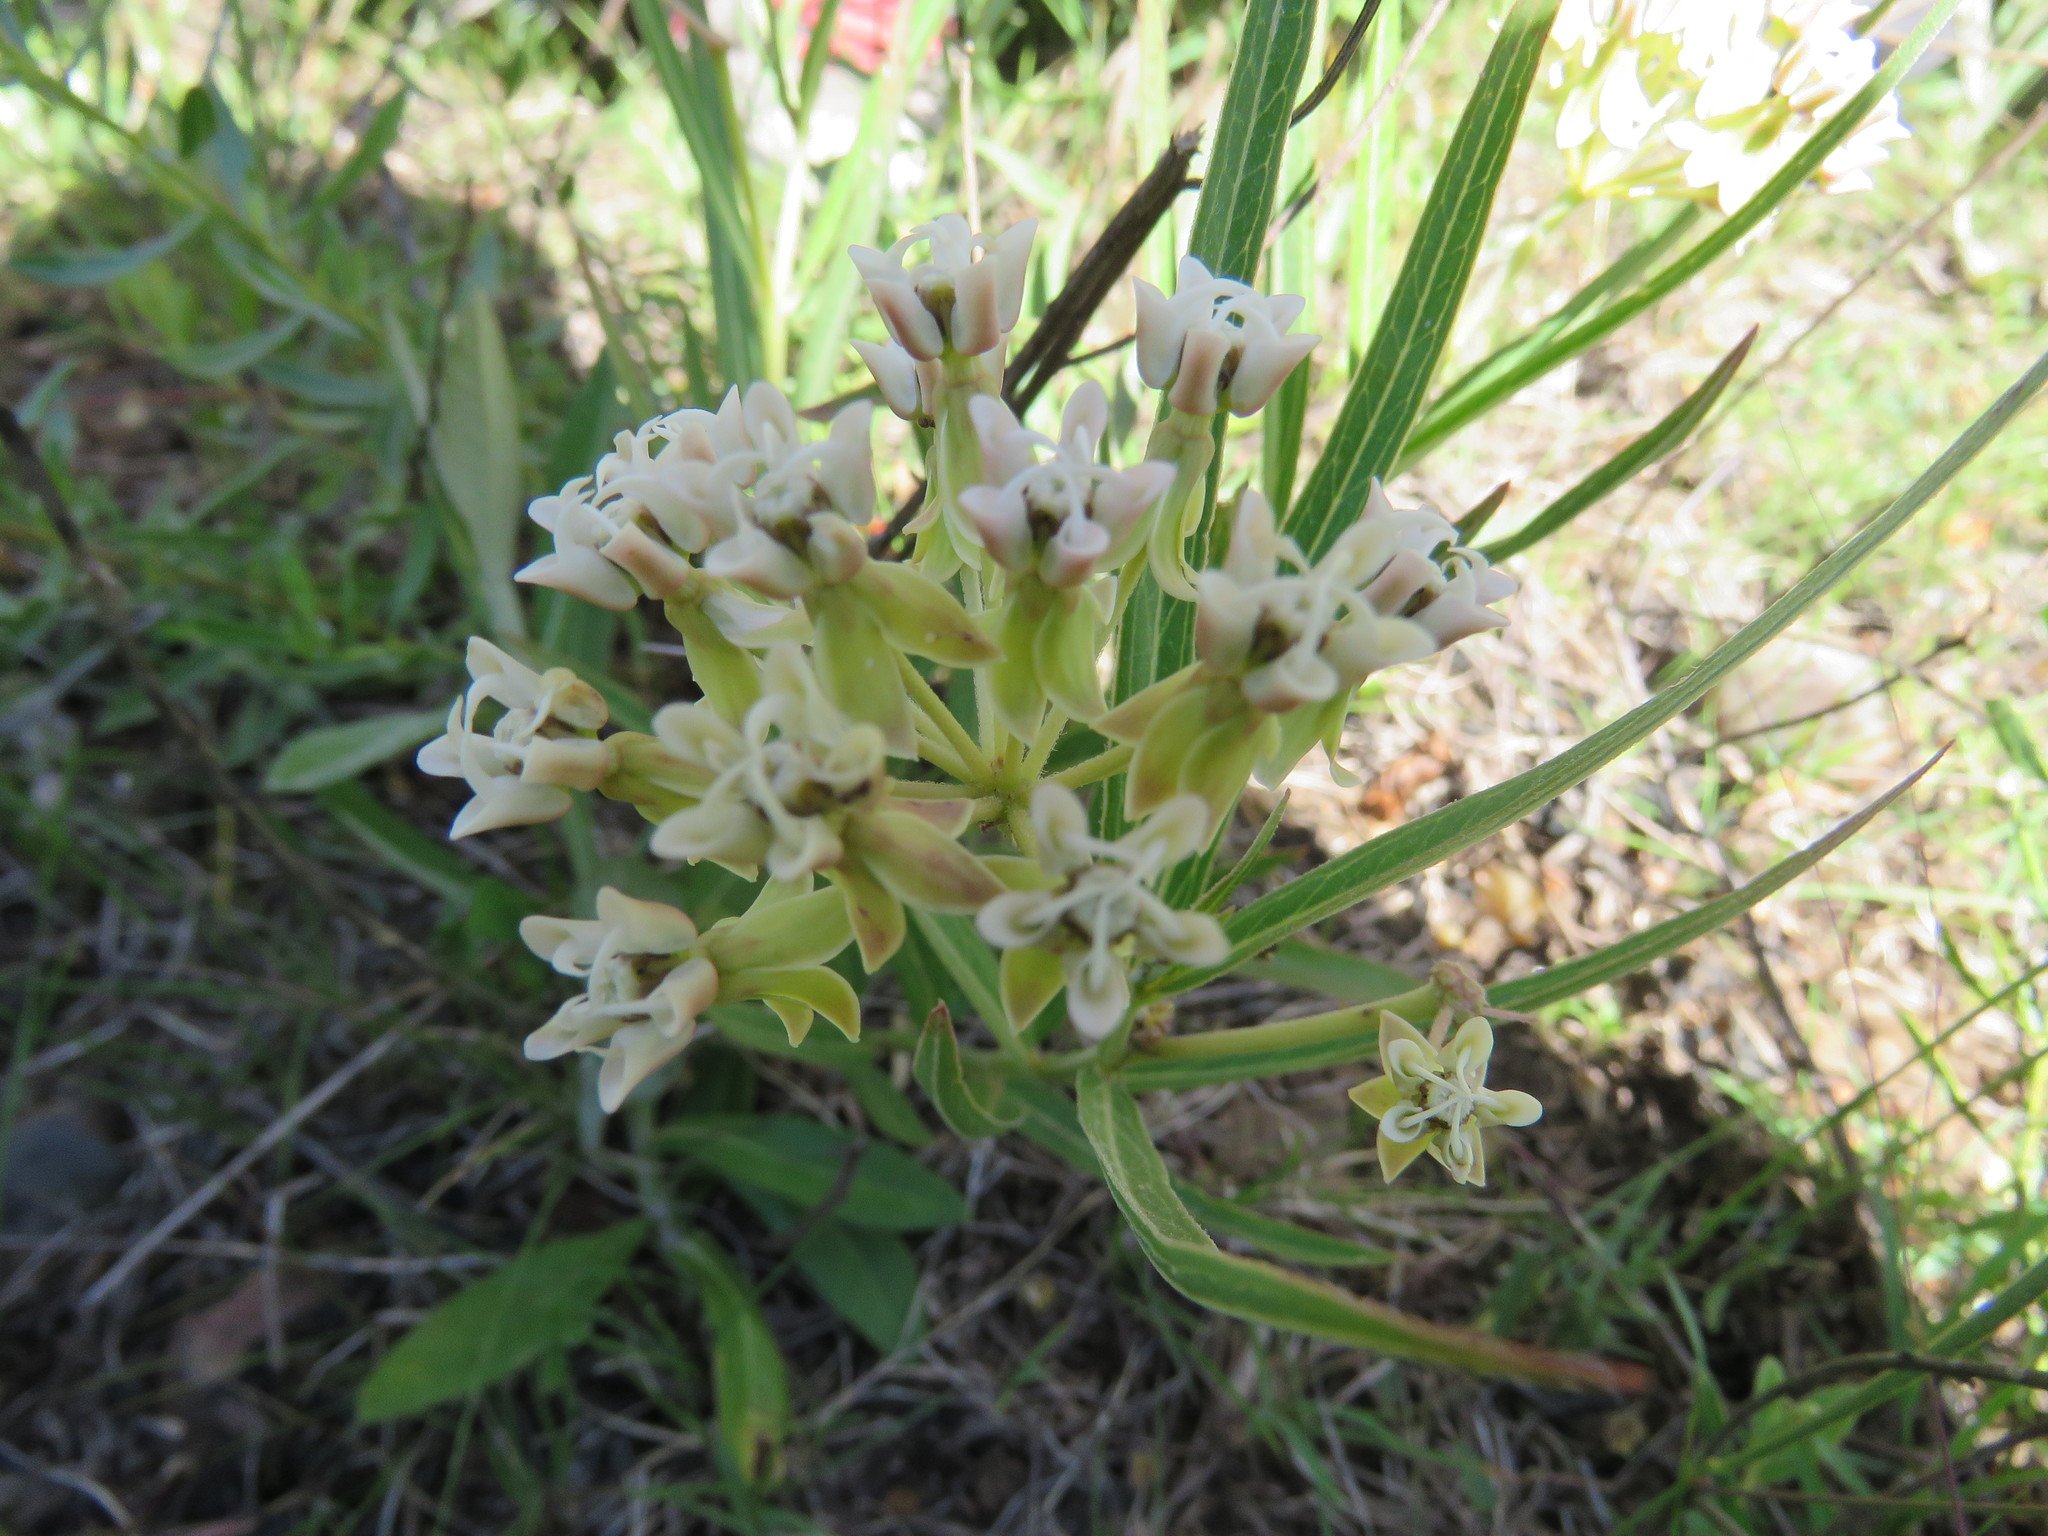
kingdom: Plantae
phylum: Tracheophyta
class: Magnoliopsida
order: Gentianales
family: Apocynaceae
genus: Asclepias
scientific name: Asclepias mellodora
